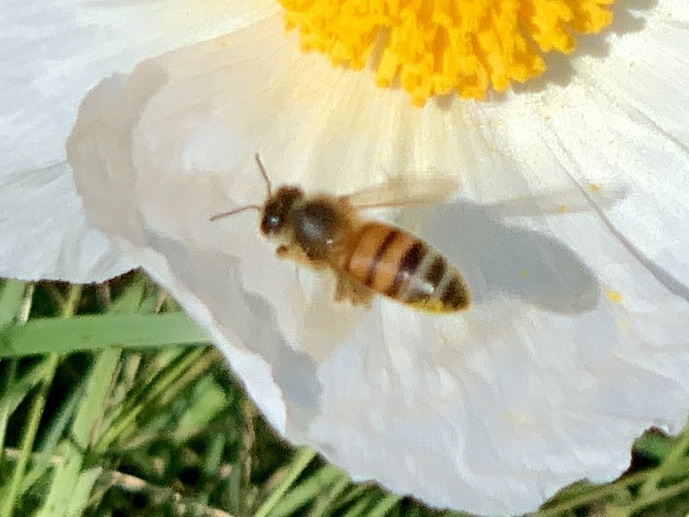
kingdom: Animalia
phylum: Arthropoda
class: Insecta
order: Hymenoptera
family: Apidae
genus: Apis
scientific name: Apis mellifera
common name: Honey bee
